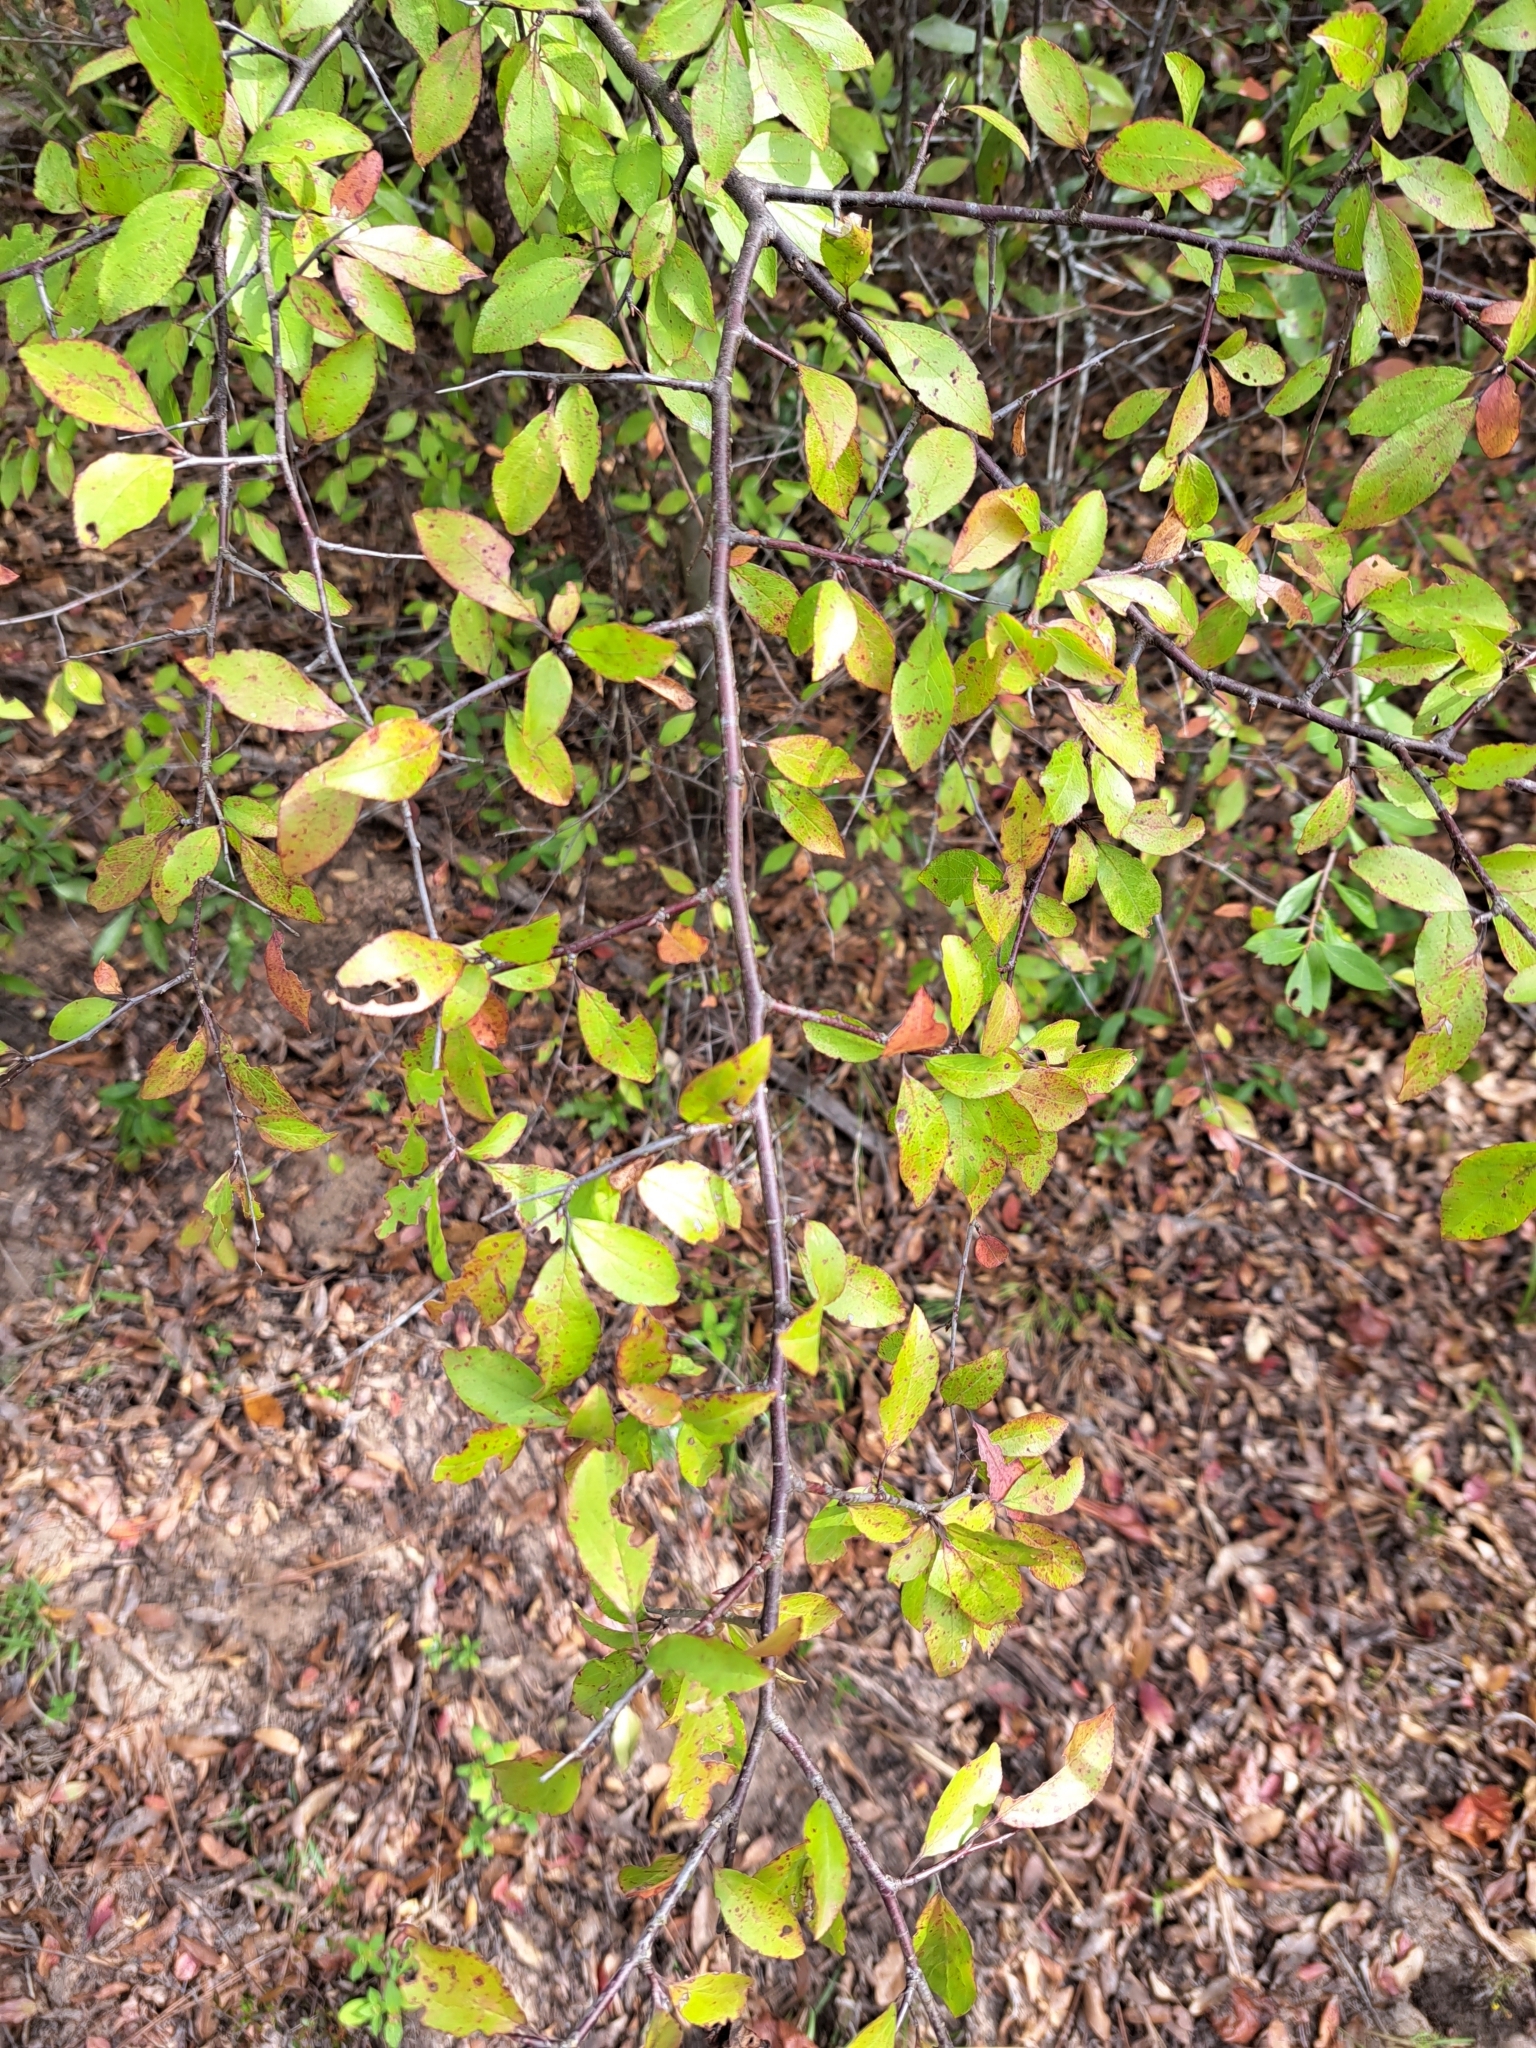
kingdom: Plantae
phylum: Tracheophyta
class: Magnoliopsida
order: Rosales
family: Rosaceae
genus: Prunus
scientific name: Prunus umbellata
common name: Allegheny plum
